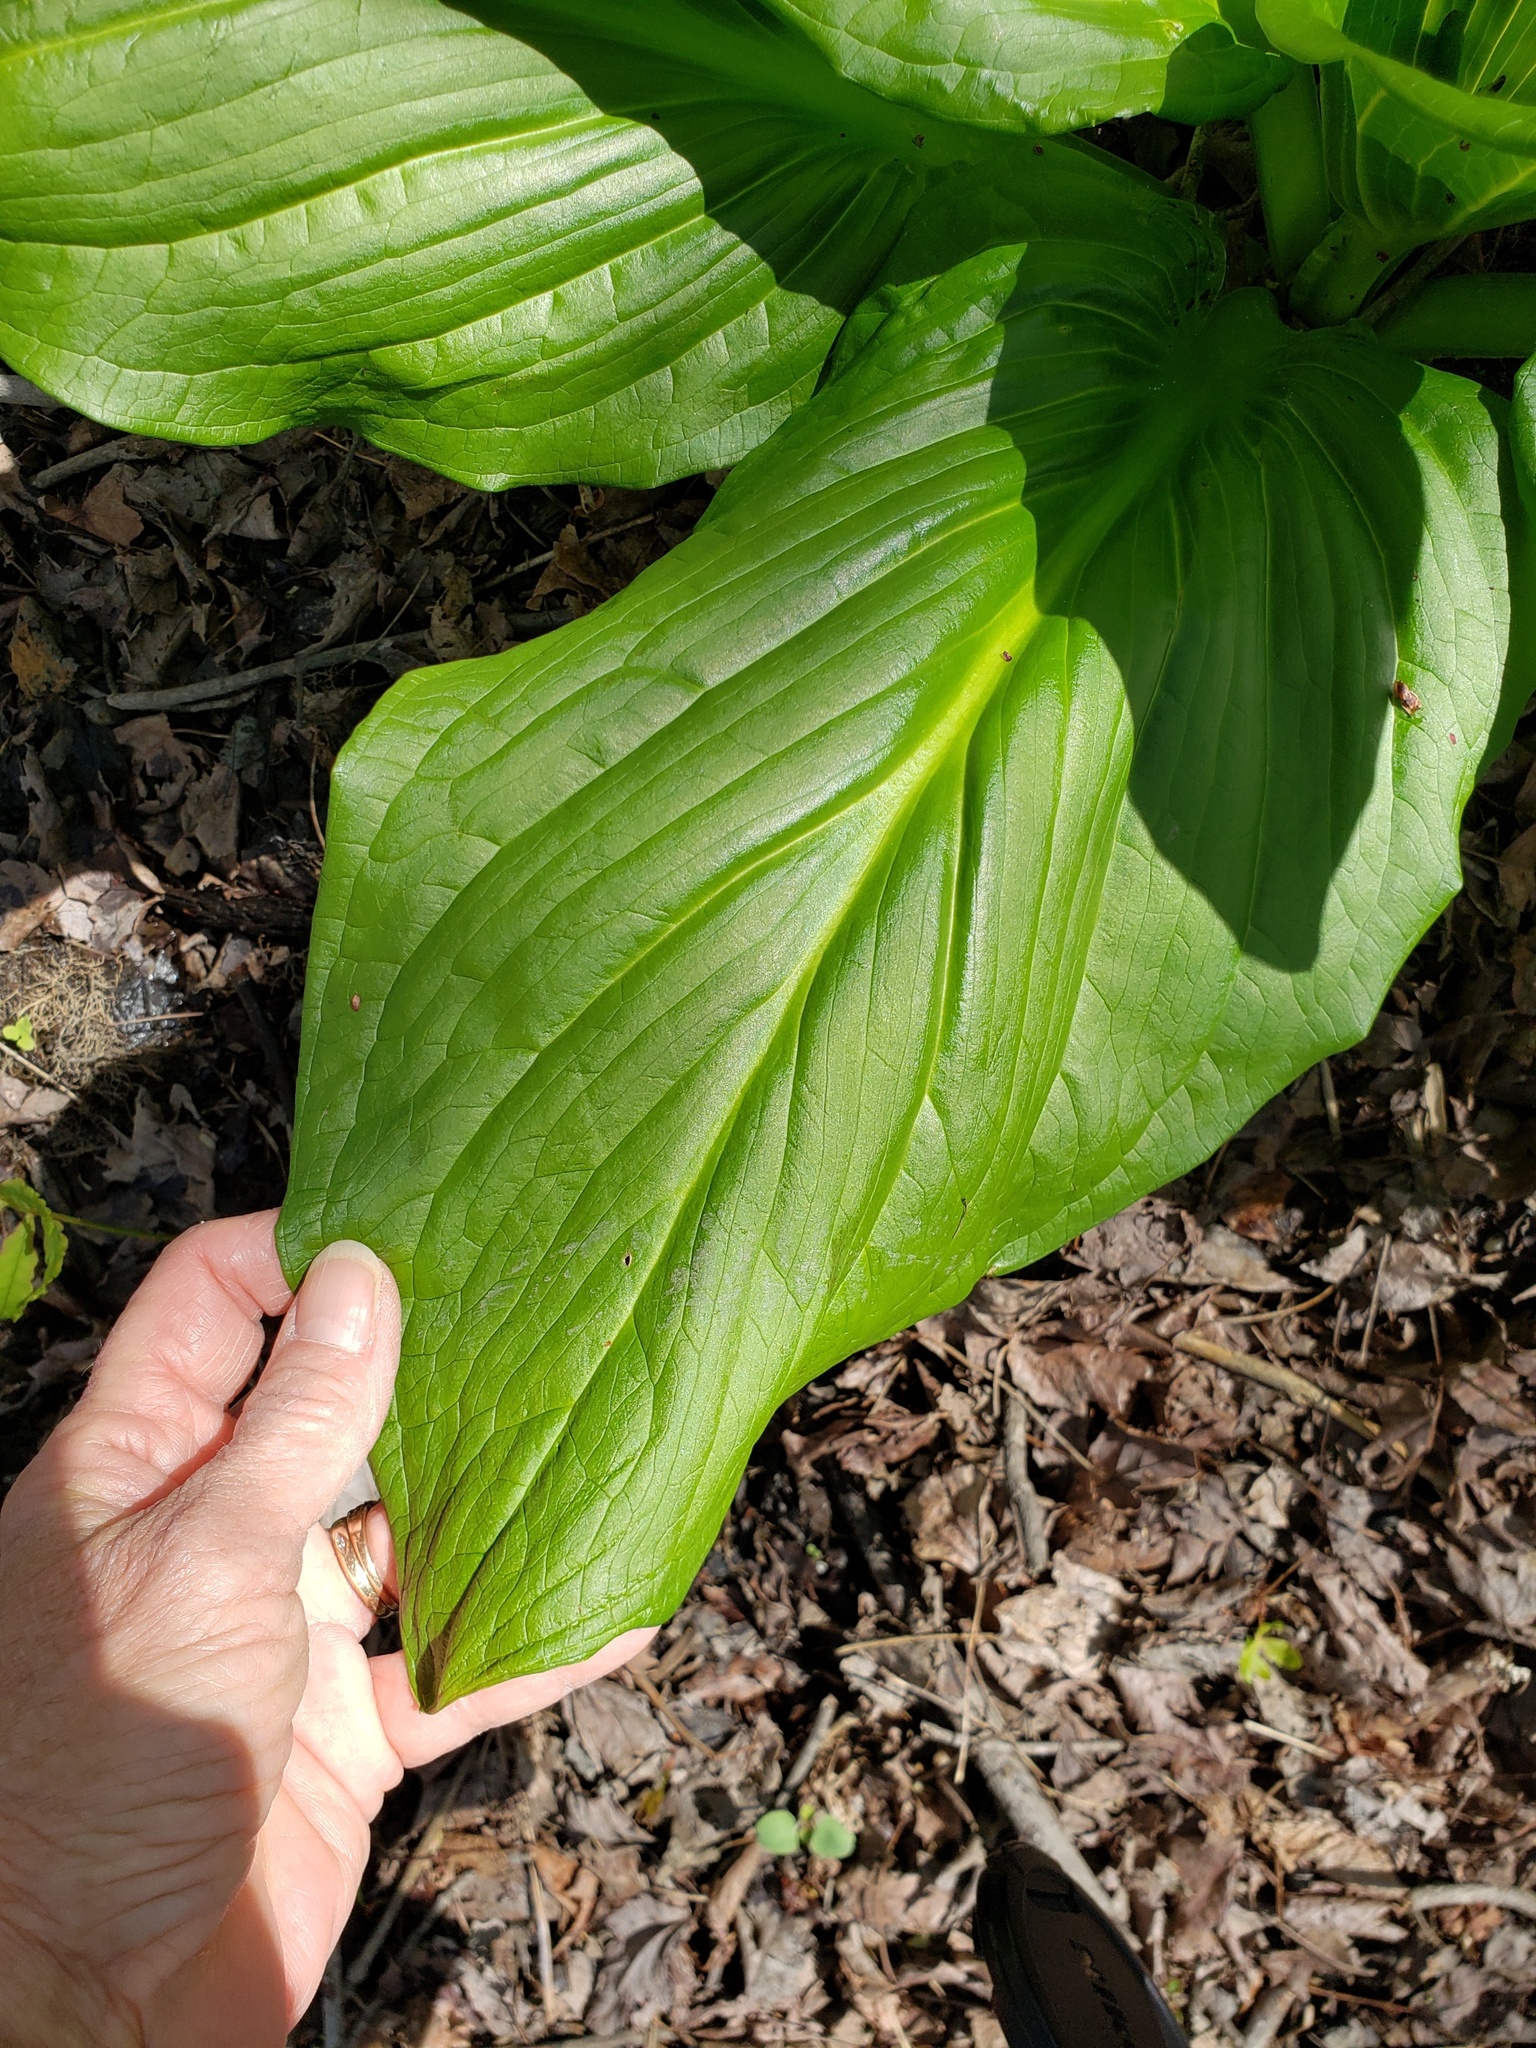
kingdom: Plantae
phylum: Tracheophyta
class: Liliopsida
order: Alismatales
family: Araceae
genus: Symplocarpus
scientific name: Symplocarpus foetidus
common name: Eastern skunk cabbage
